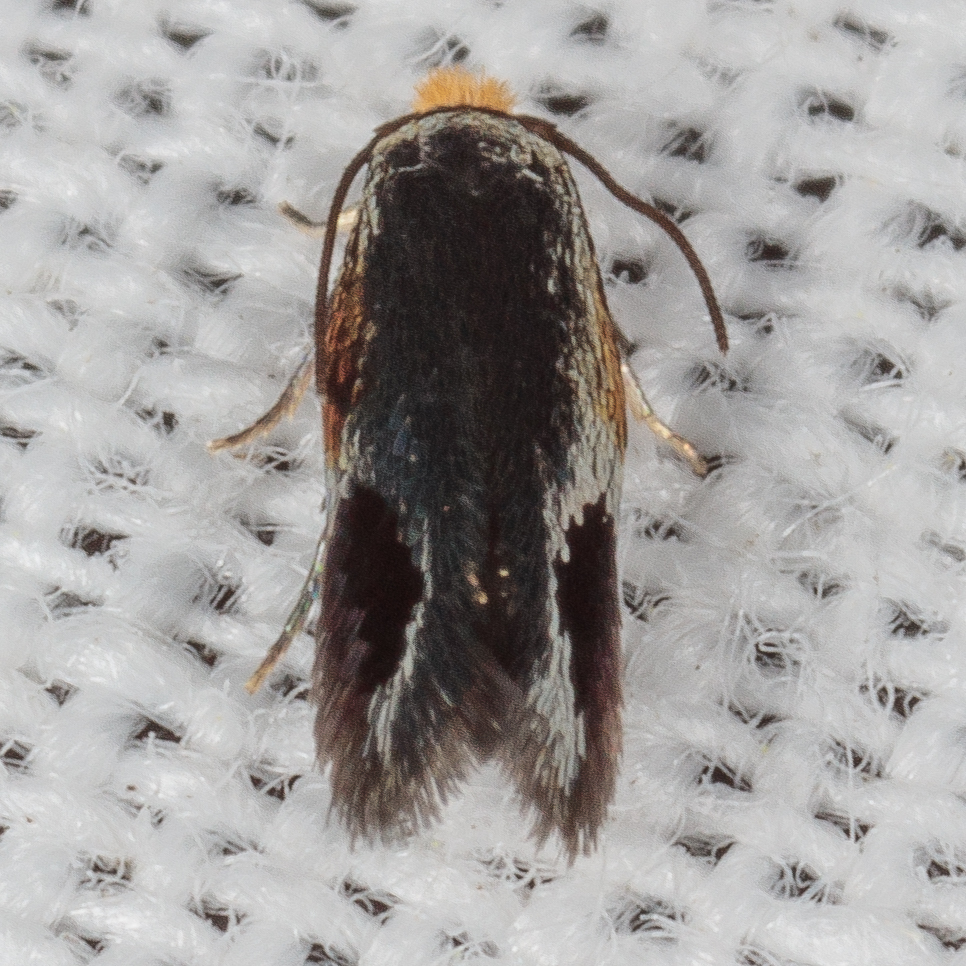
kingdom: Animalia
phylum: Arthropoda
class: Insecta
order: Lepidoptera
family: Nepticulidae
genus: Stigmella
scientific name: Stigmella resplendensella
